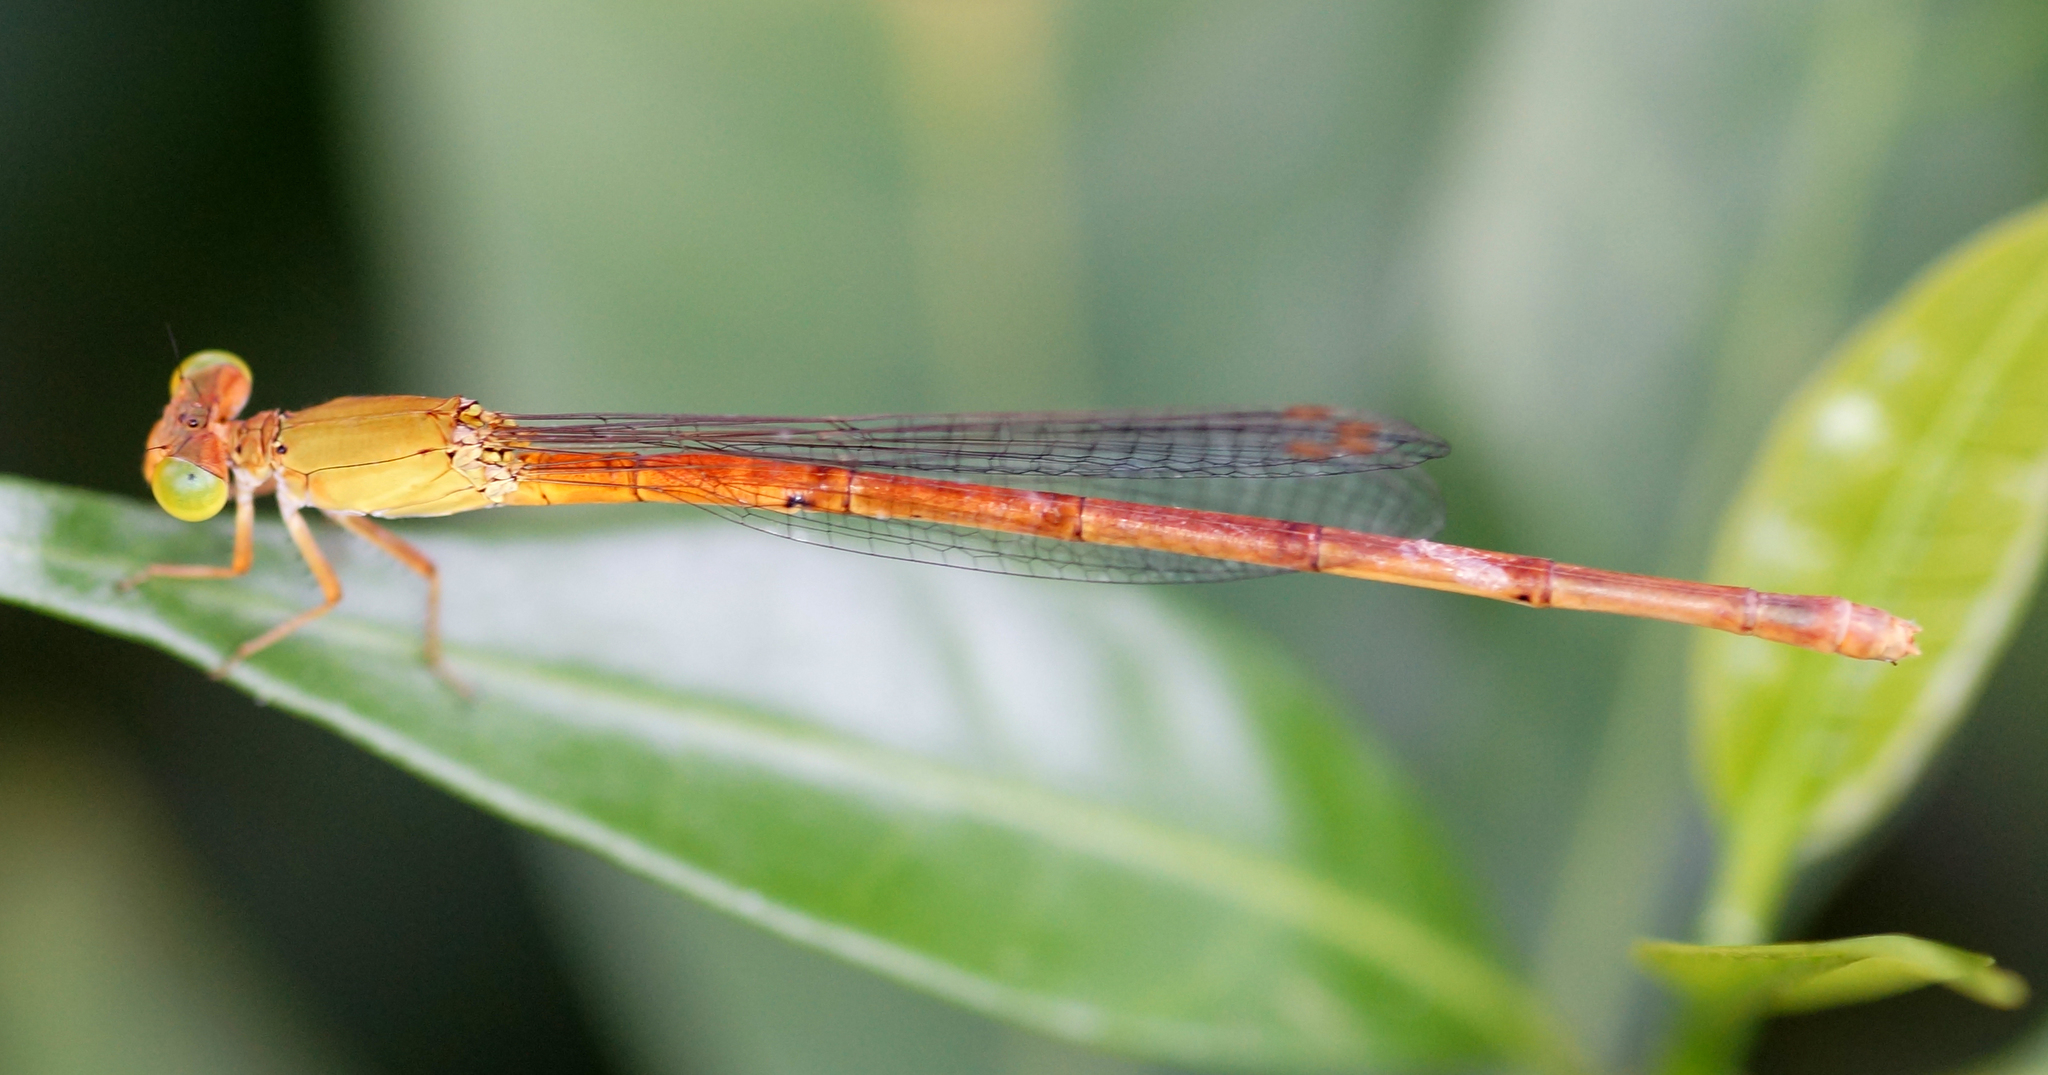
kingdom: Animalia
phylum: Arthropoda
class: Insecta
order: Odonata
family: Coenagrionidae
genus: Ceriagrion
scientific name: Ceriagrion malaisei
